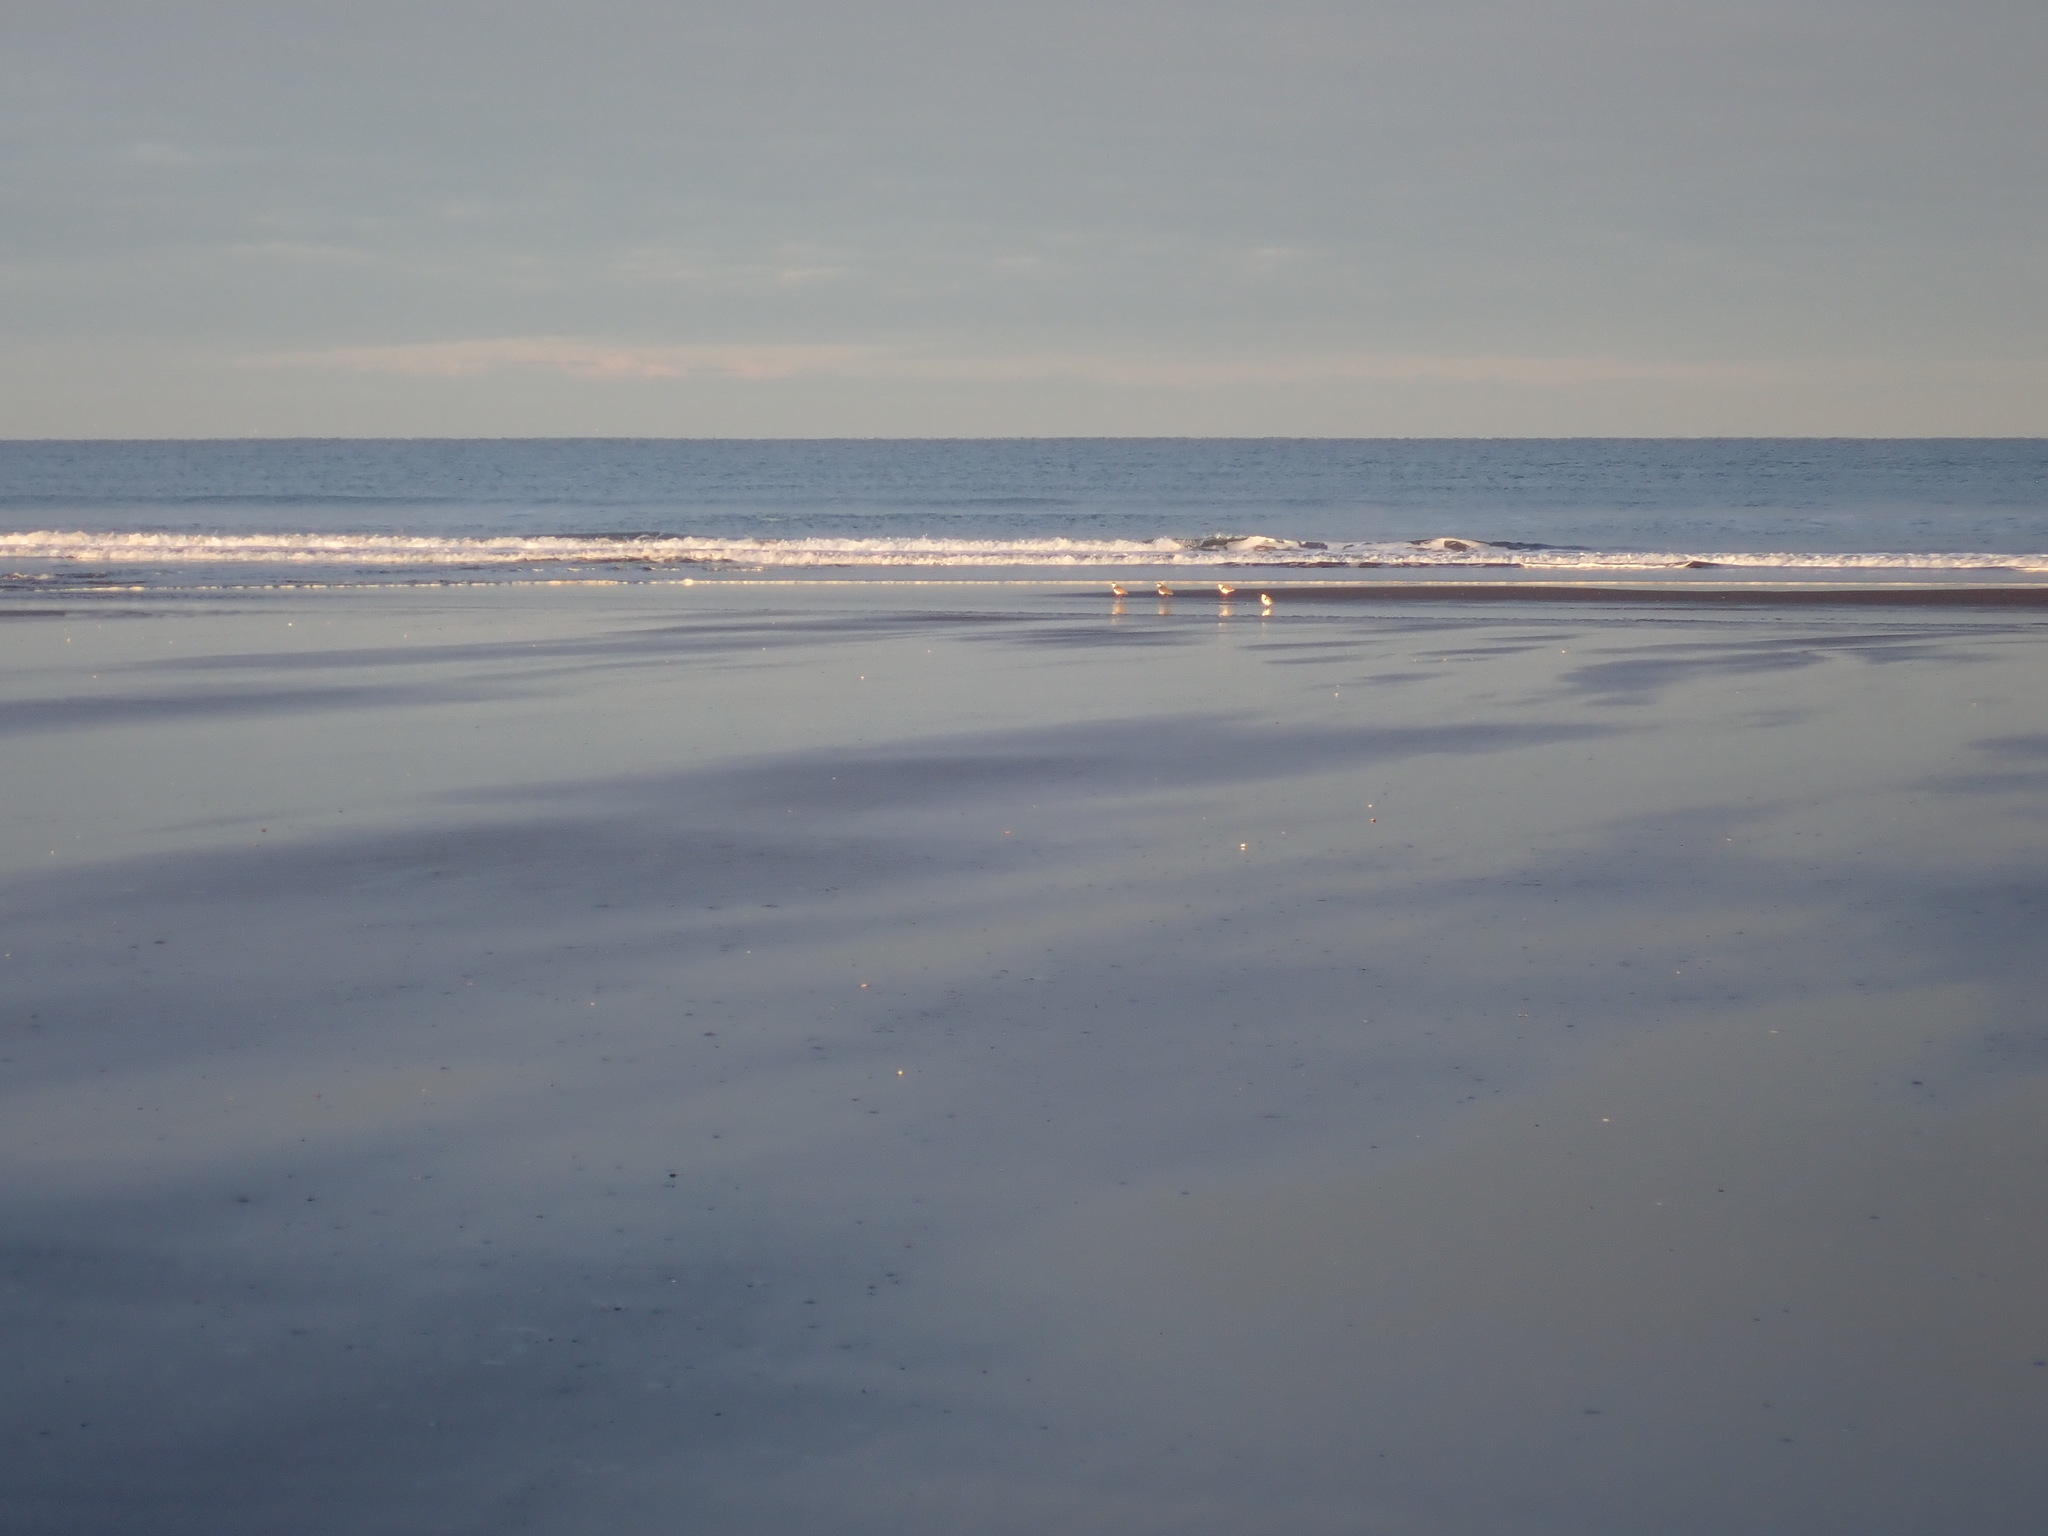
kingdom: Animalia
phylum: Chordata
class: Aves
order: Charadriiformes
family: Charadriidae
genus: Vanellus
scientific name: Vanellus miles
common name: Masked lapwing
